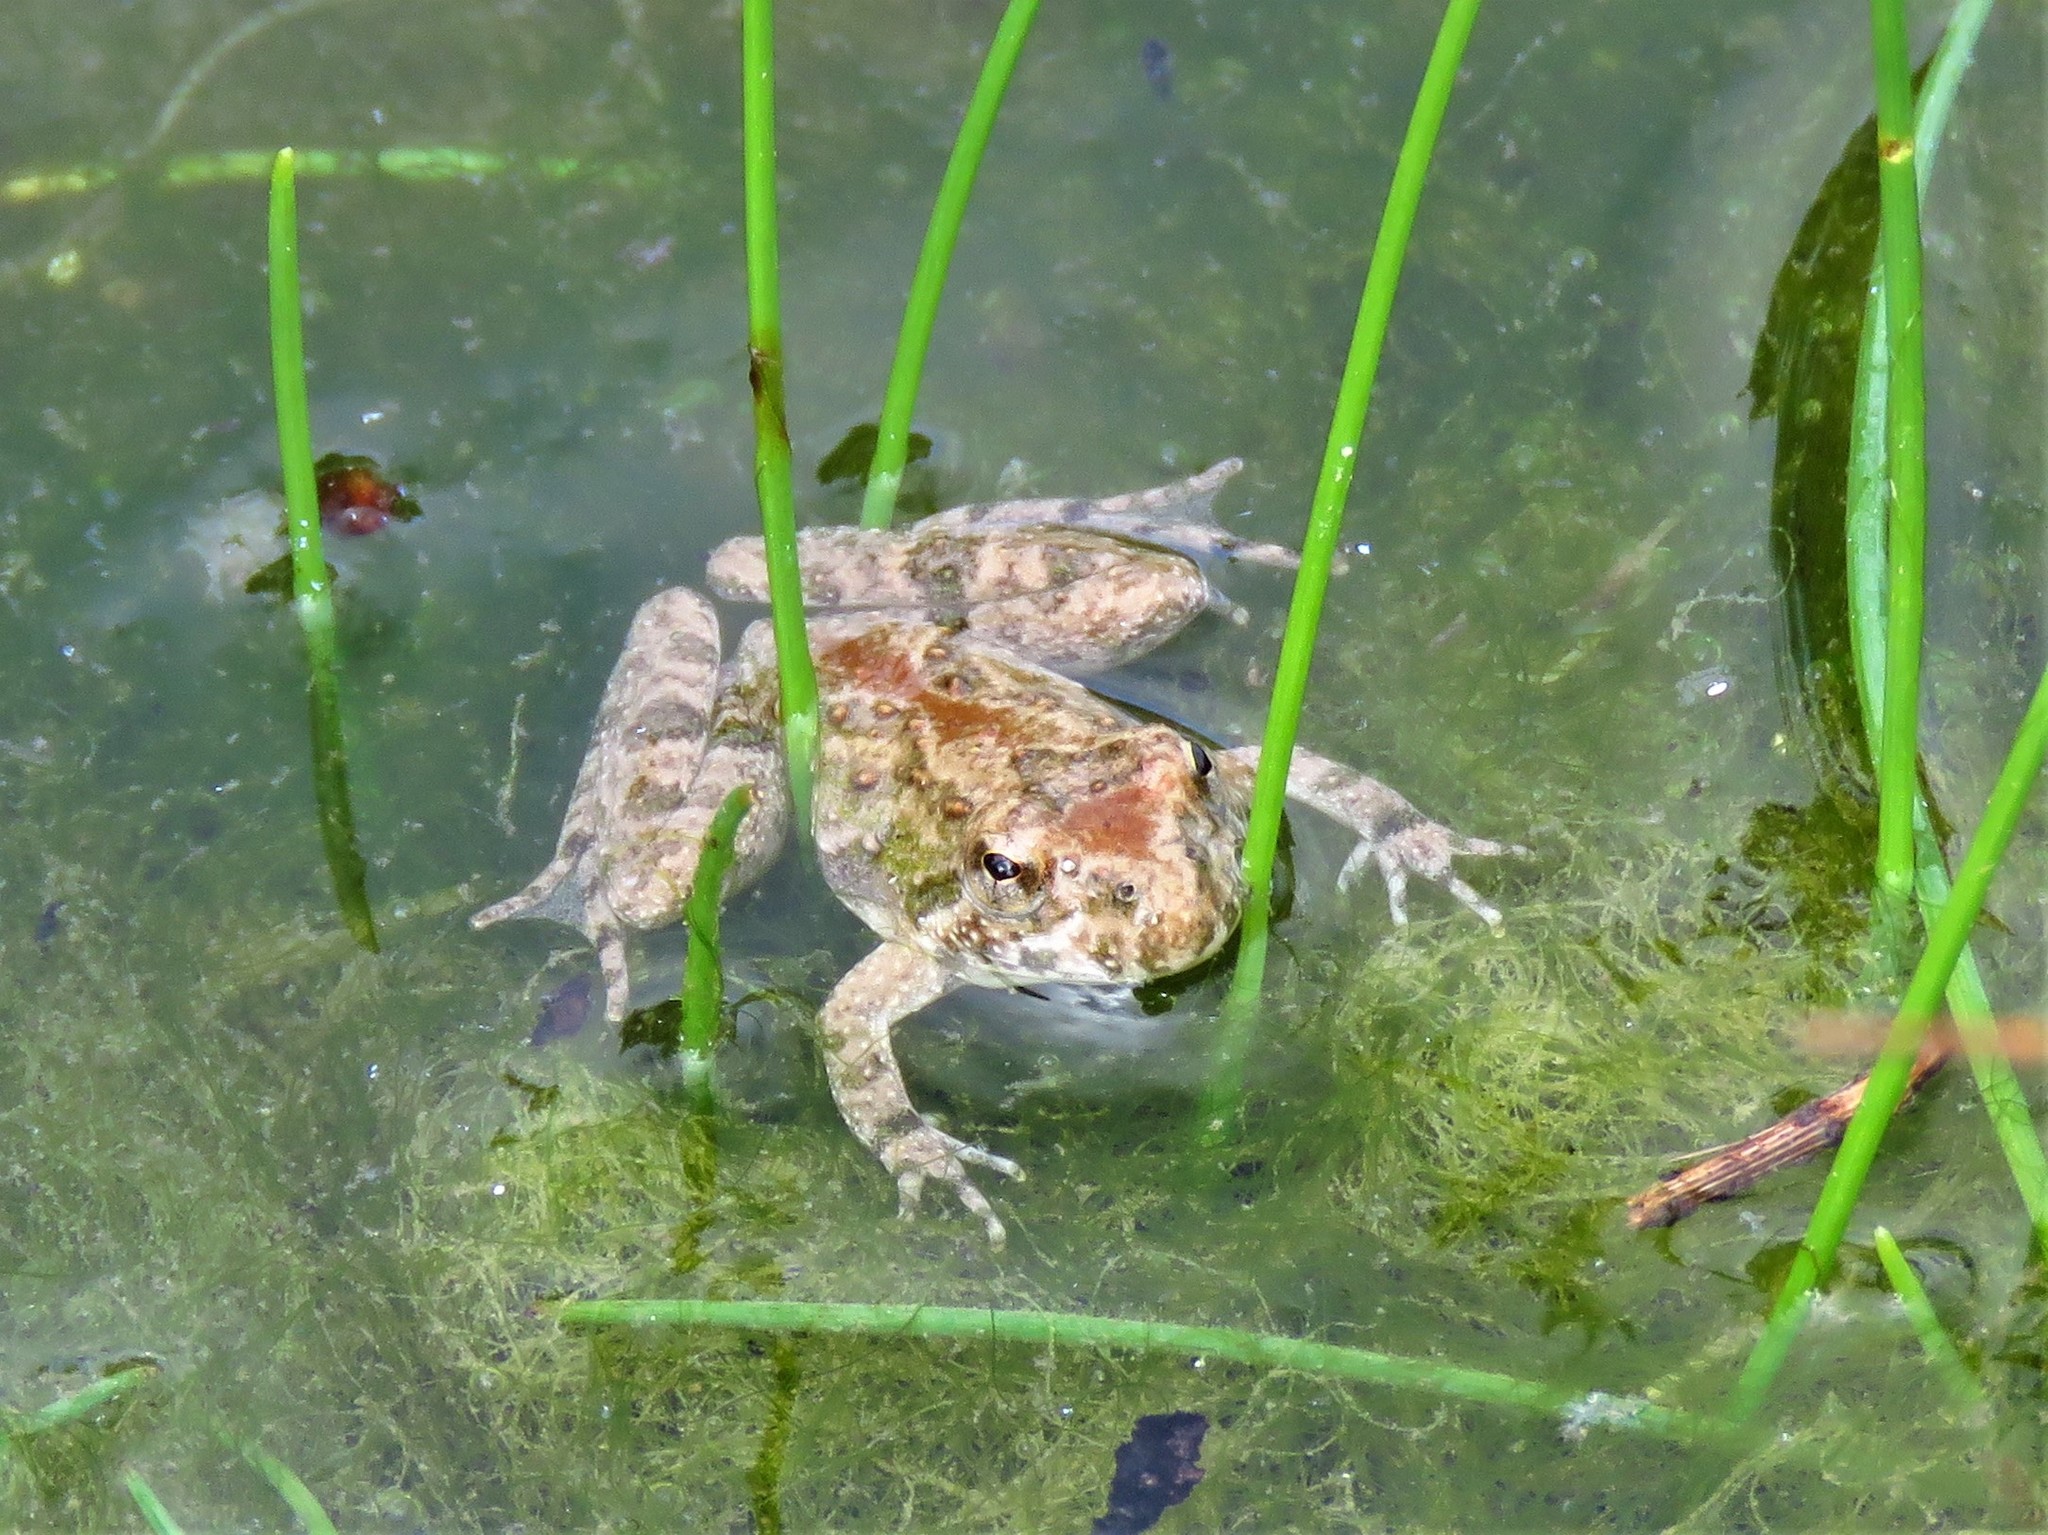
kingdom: Animalia
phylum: Chordata
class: Amphibia
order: Anura
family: Hylidae
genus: Acris
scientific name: Acris blanchardi
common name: Blanchard's cricket frog
